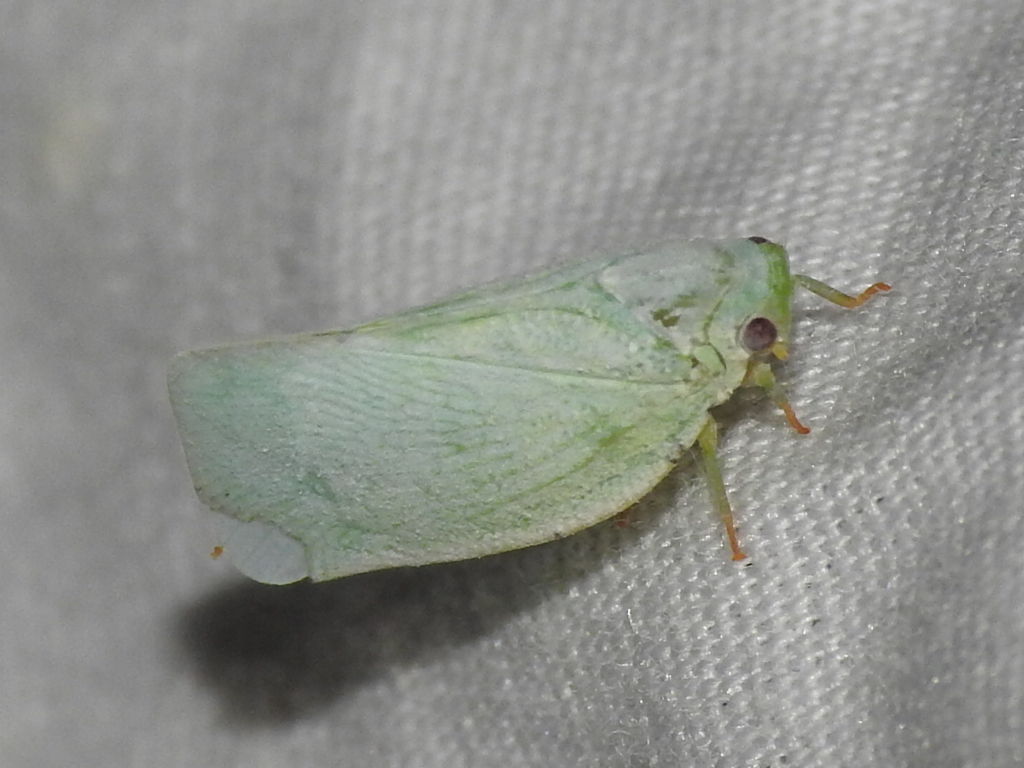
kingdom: Animalia
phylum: Arthropoda
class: Insecta
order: Hemiptera
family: Flatidae
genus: Flatormenis
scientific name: Flatormenis proxima
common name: Northern flatid planthopper
